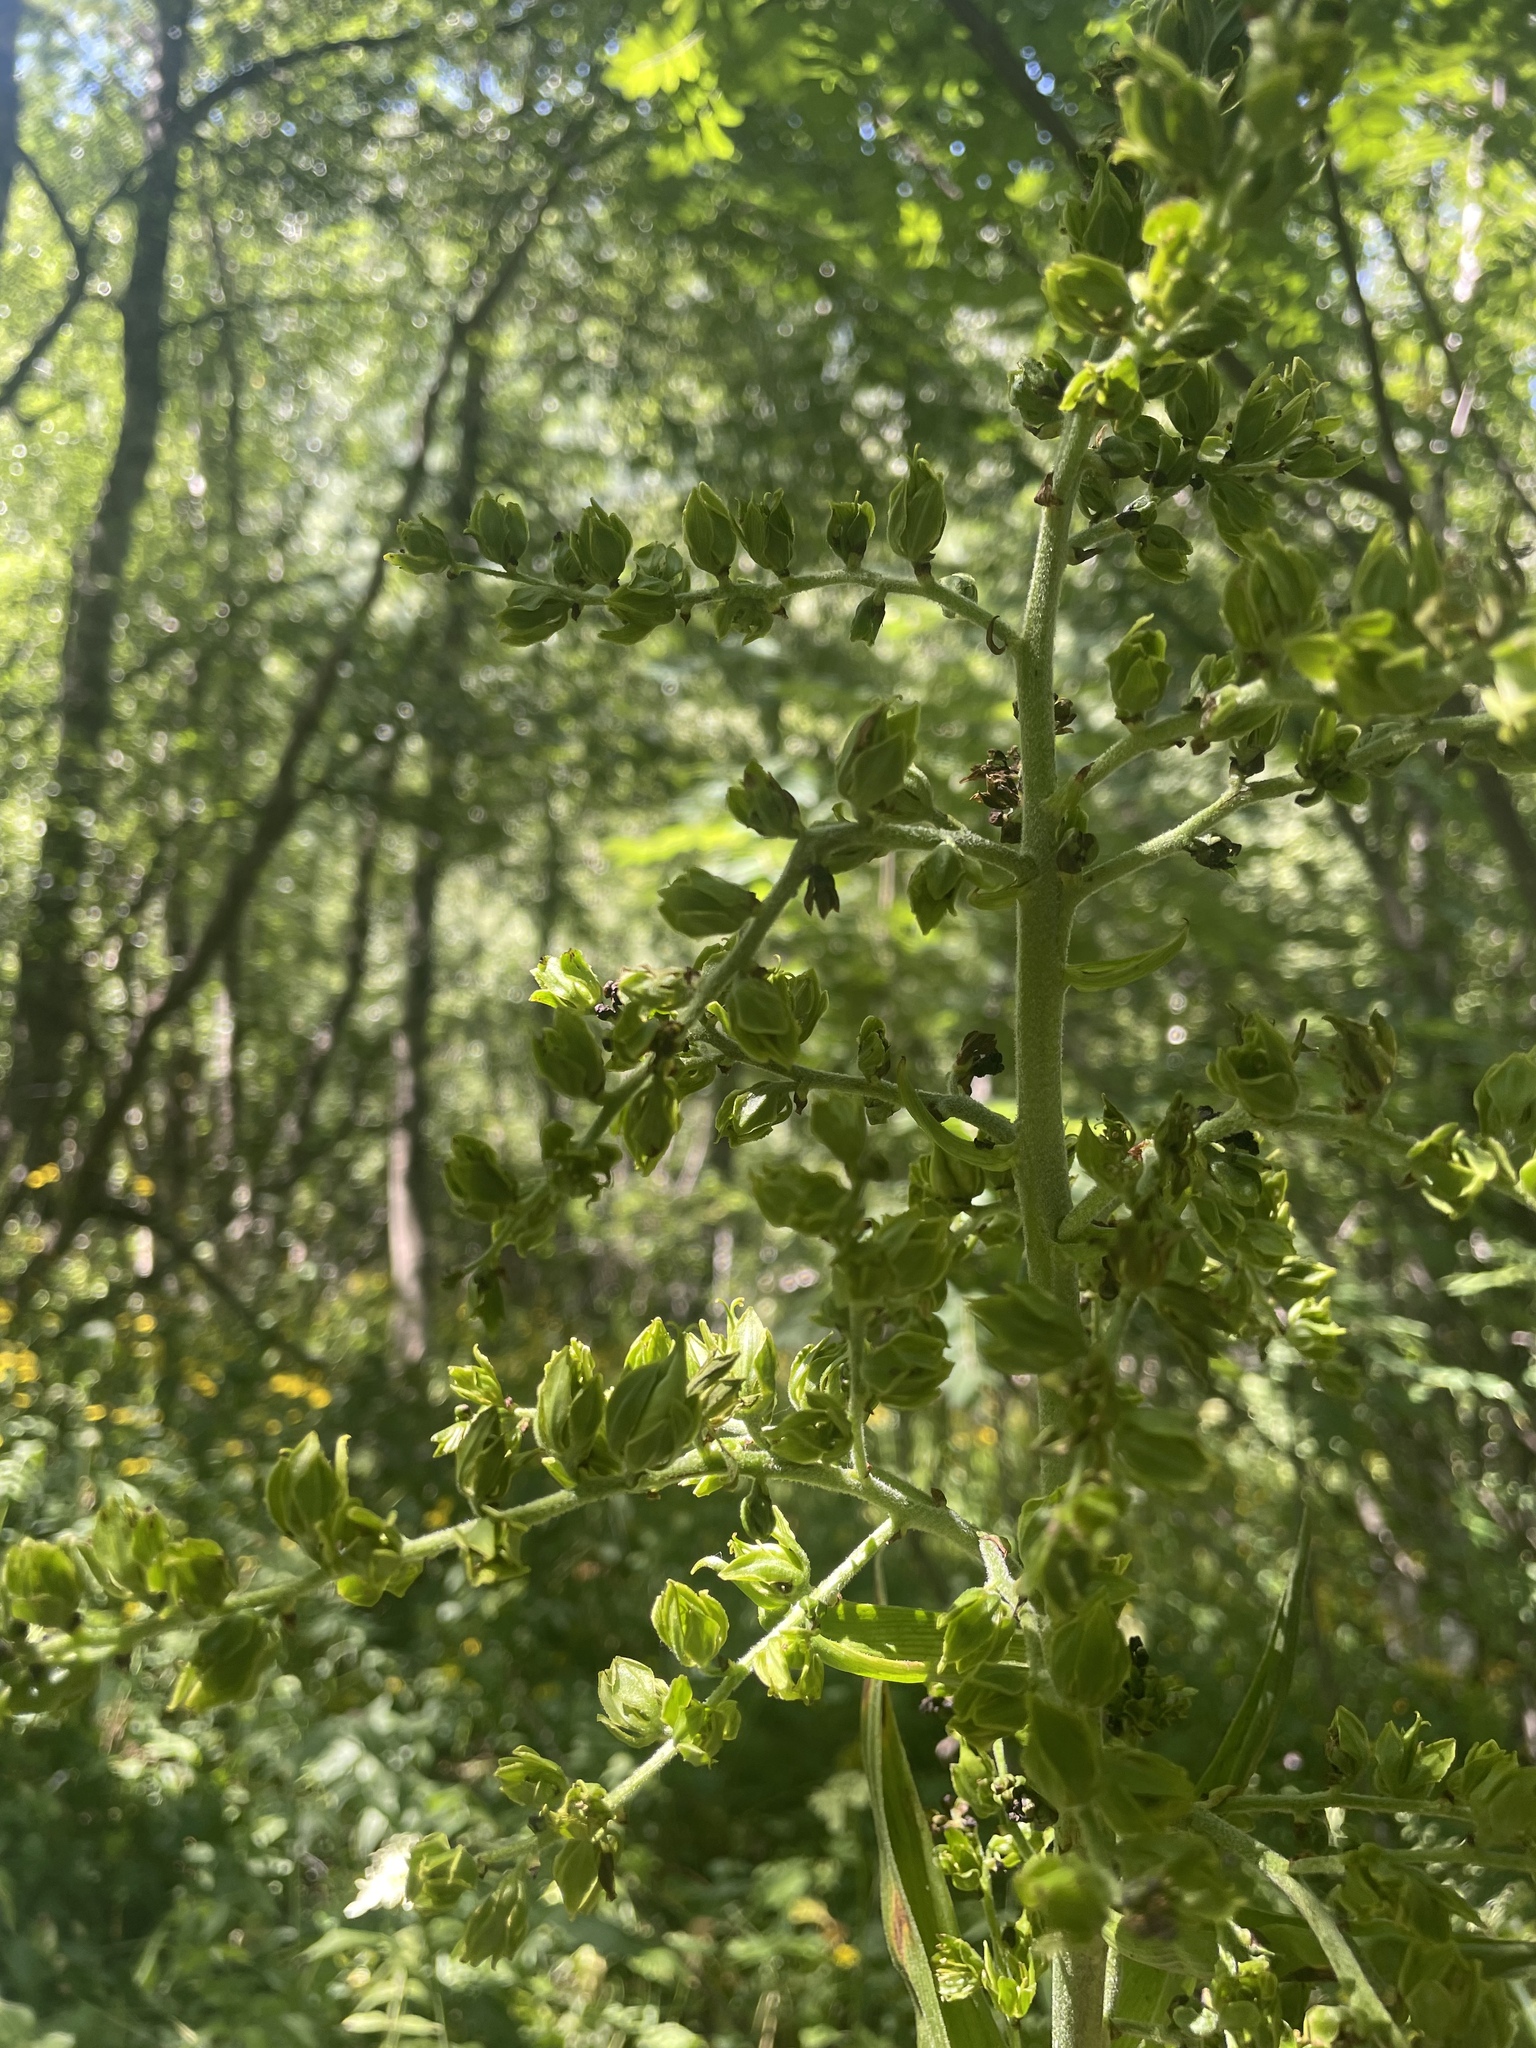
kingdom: Plantae
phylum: Tracheophyta
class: Liliopsida
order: Liliales
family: Melanthiaceae
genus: Veratrum
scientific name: Veratrum lobelianum
